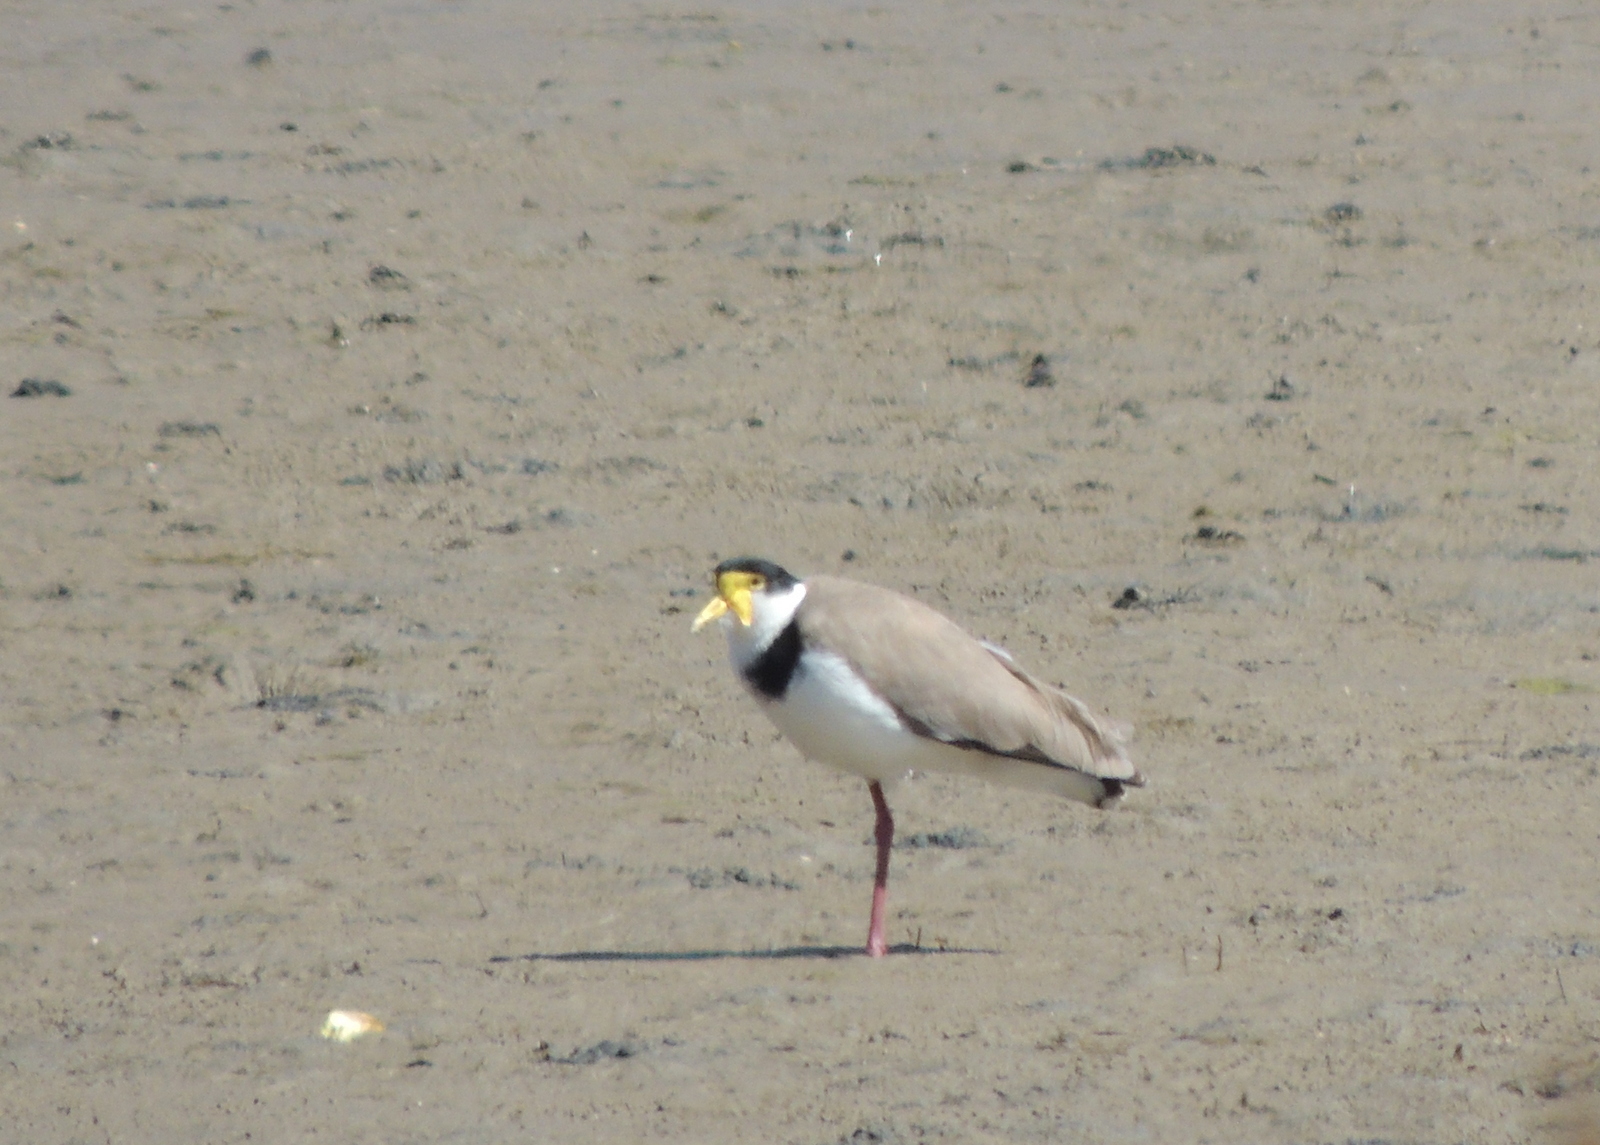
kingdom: Animalia
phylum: Chordata
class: Aves
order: Charadriiformes
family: Charadriidae
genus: Vanellus
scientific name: Vanellus miles
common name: Masked lapwing
